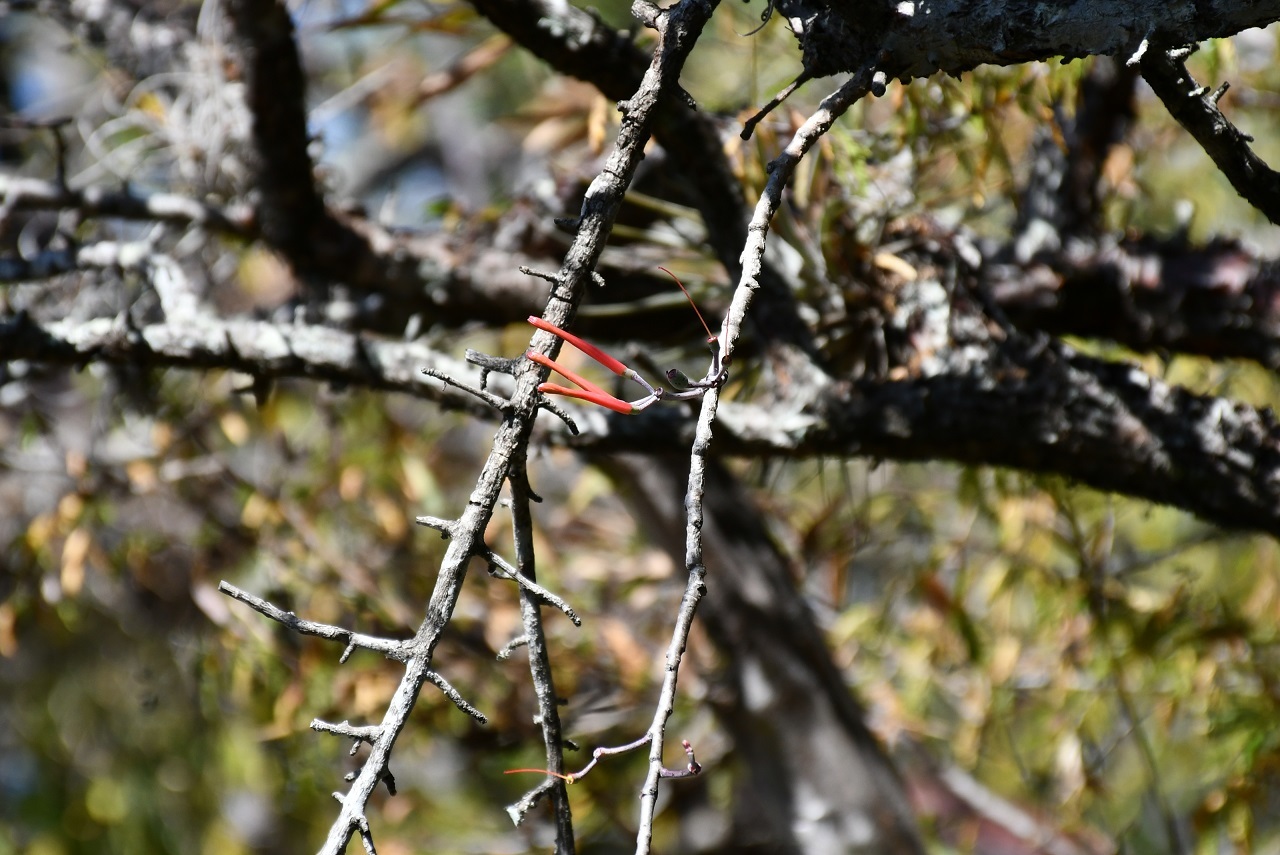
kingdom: Plantae
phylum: Tracheophyta
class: Magnoliopsida
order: Santalales
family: Loranthaceae
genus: Psittacanthus
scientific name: Psittacanthus calyculatus
